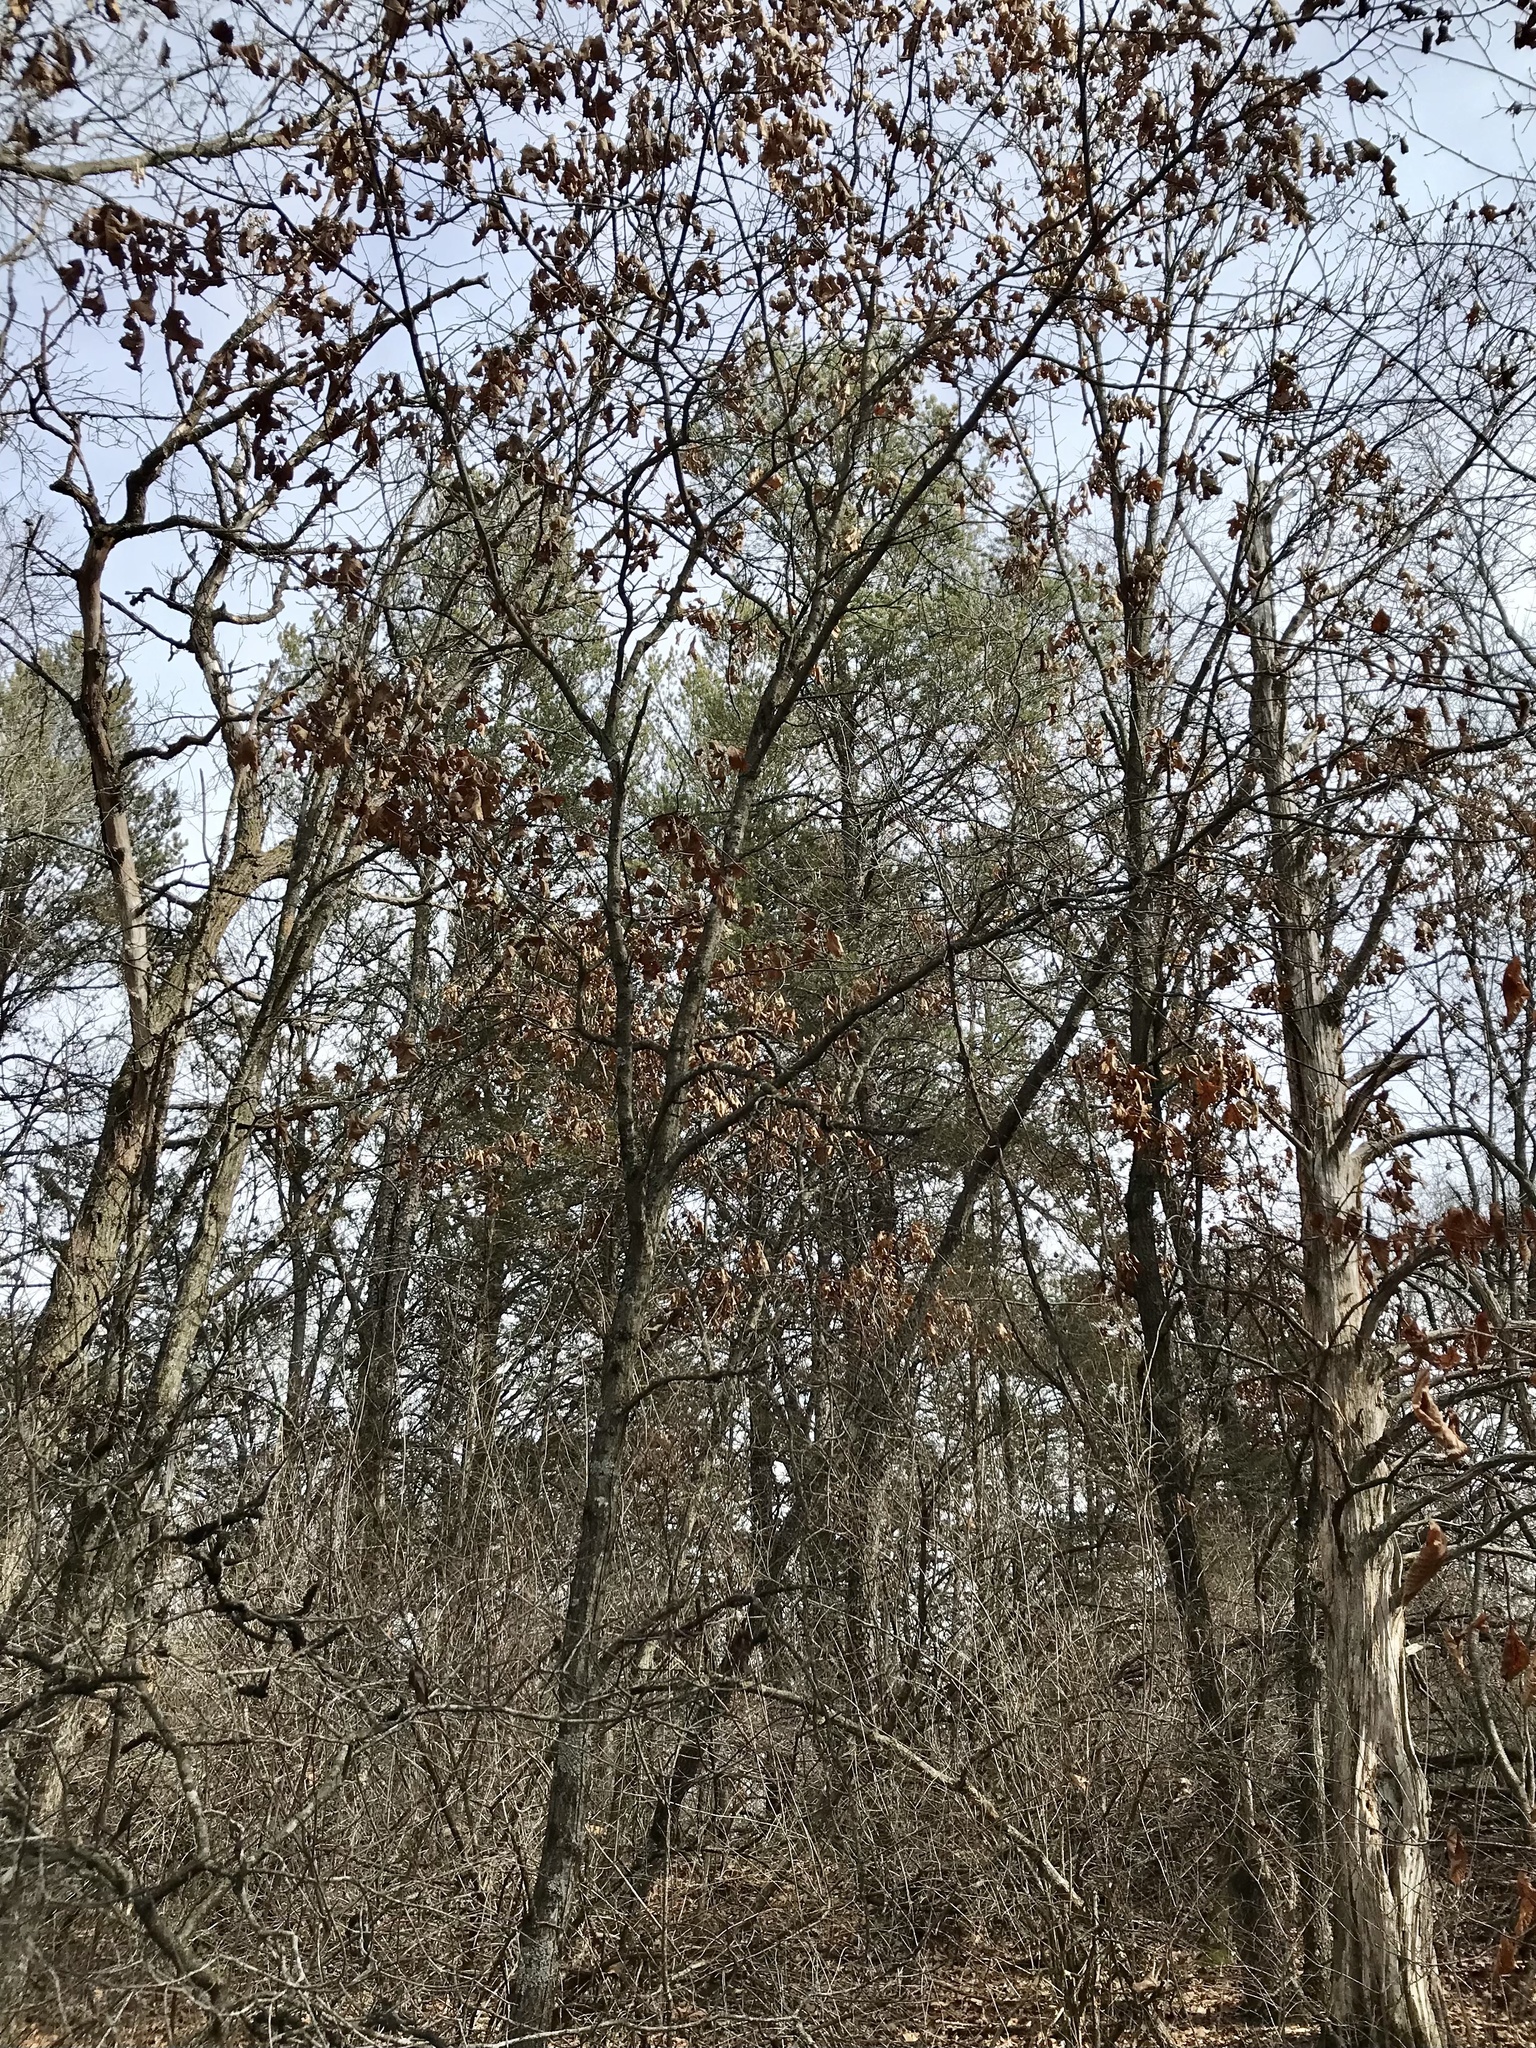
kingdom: Plantae
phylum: Tracheophyta
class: Pinopsida
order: Pinales
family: Pinaceae
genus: Pinus
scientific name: Pinus banksiana
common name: Jack pine
